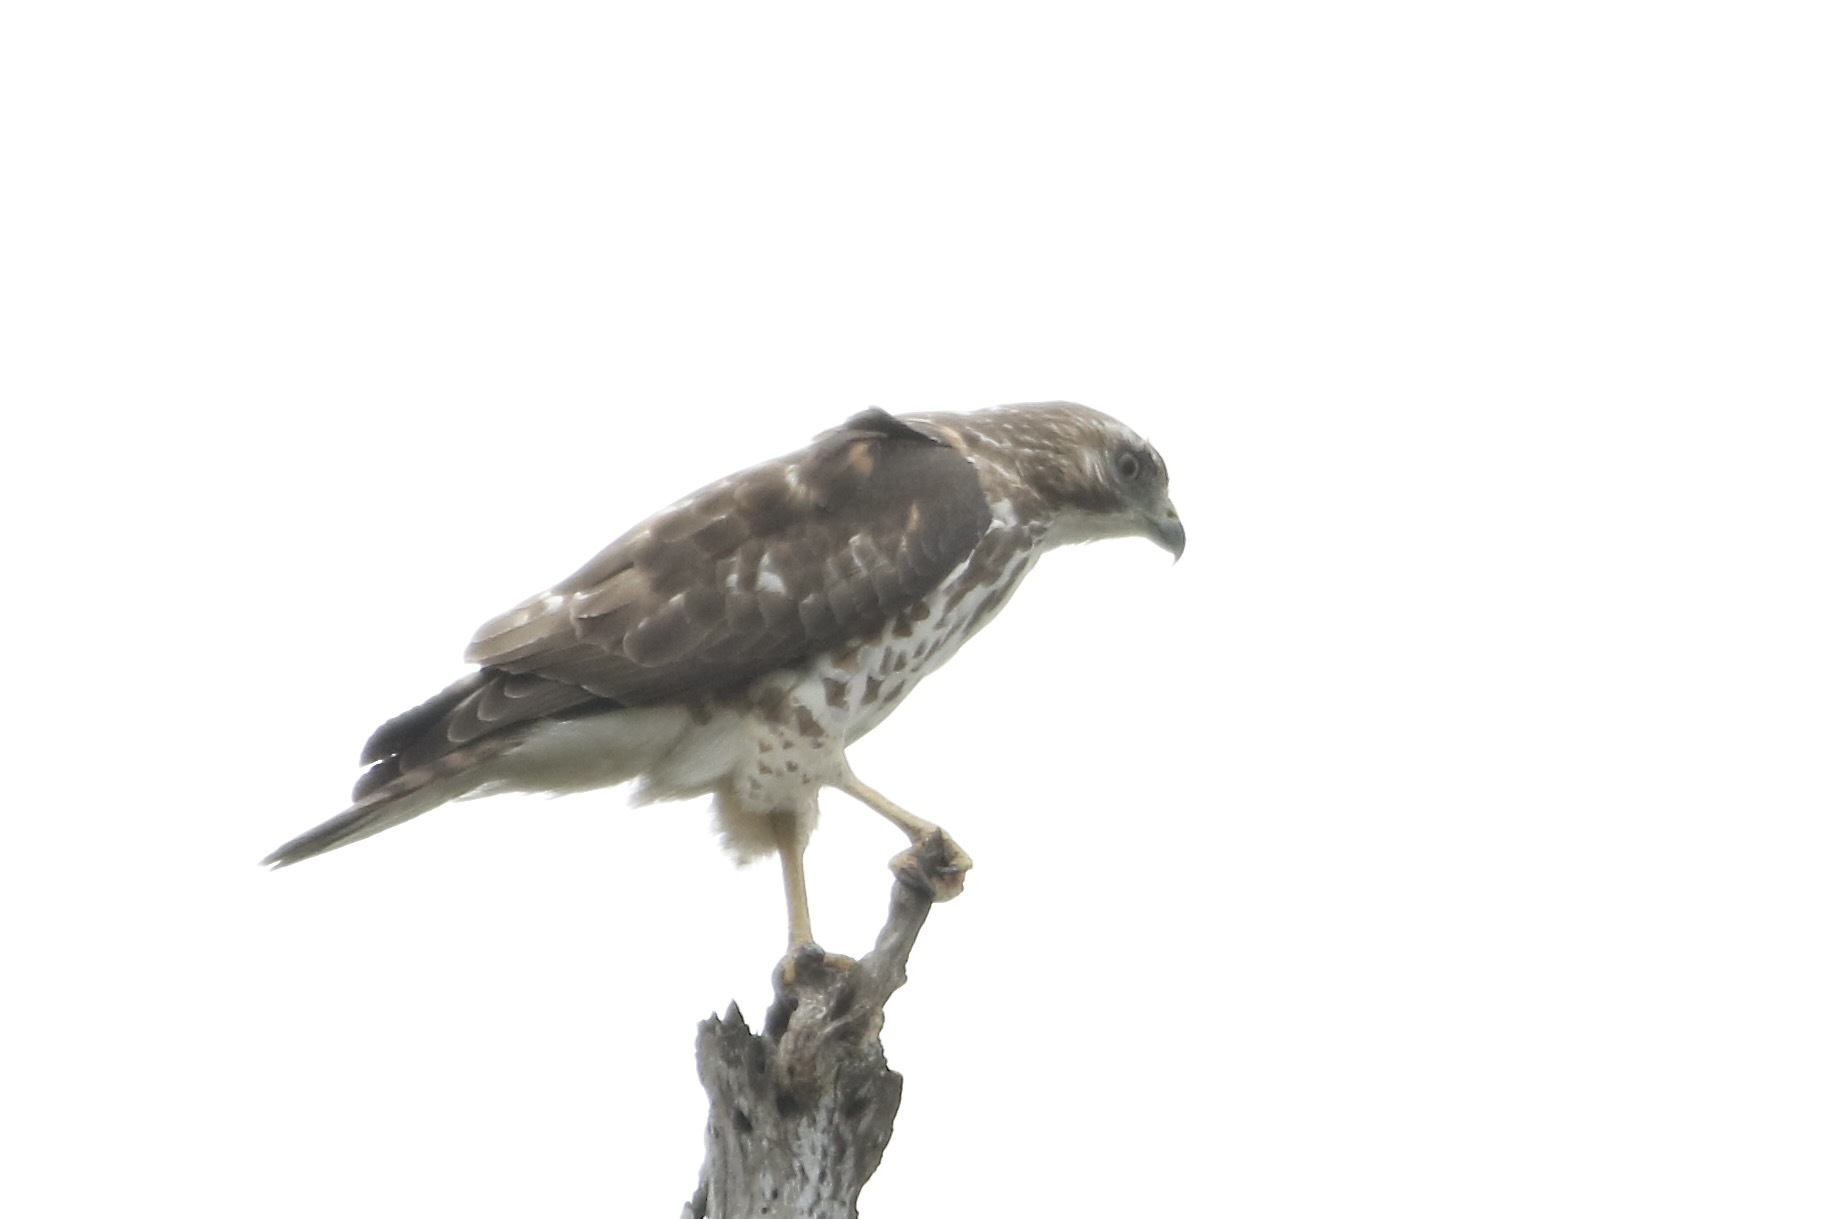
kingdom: Animalia
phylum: Chordata
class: Aves
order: Accipitriformes
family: Accipitridae
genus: Buteo
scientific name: Buteo platypterus
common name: Broad-winged hawk
